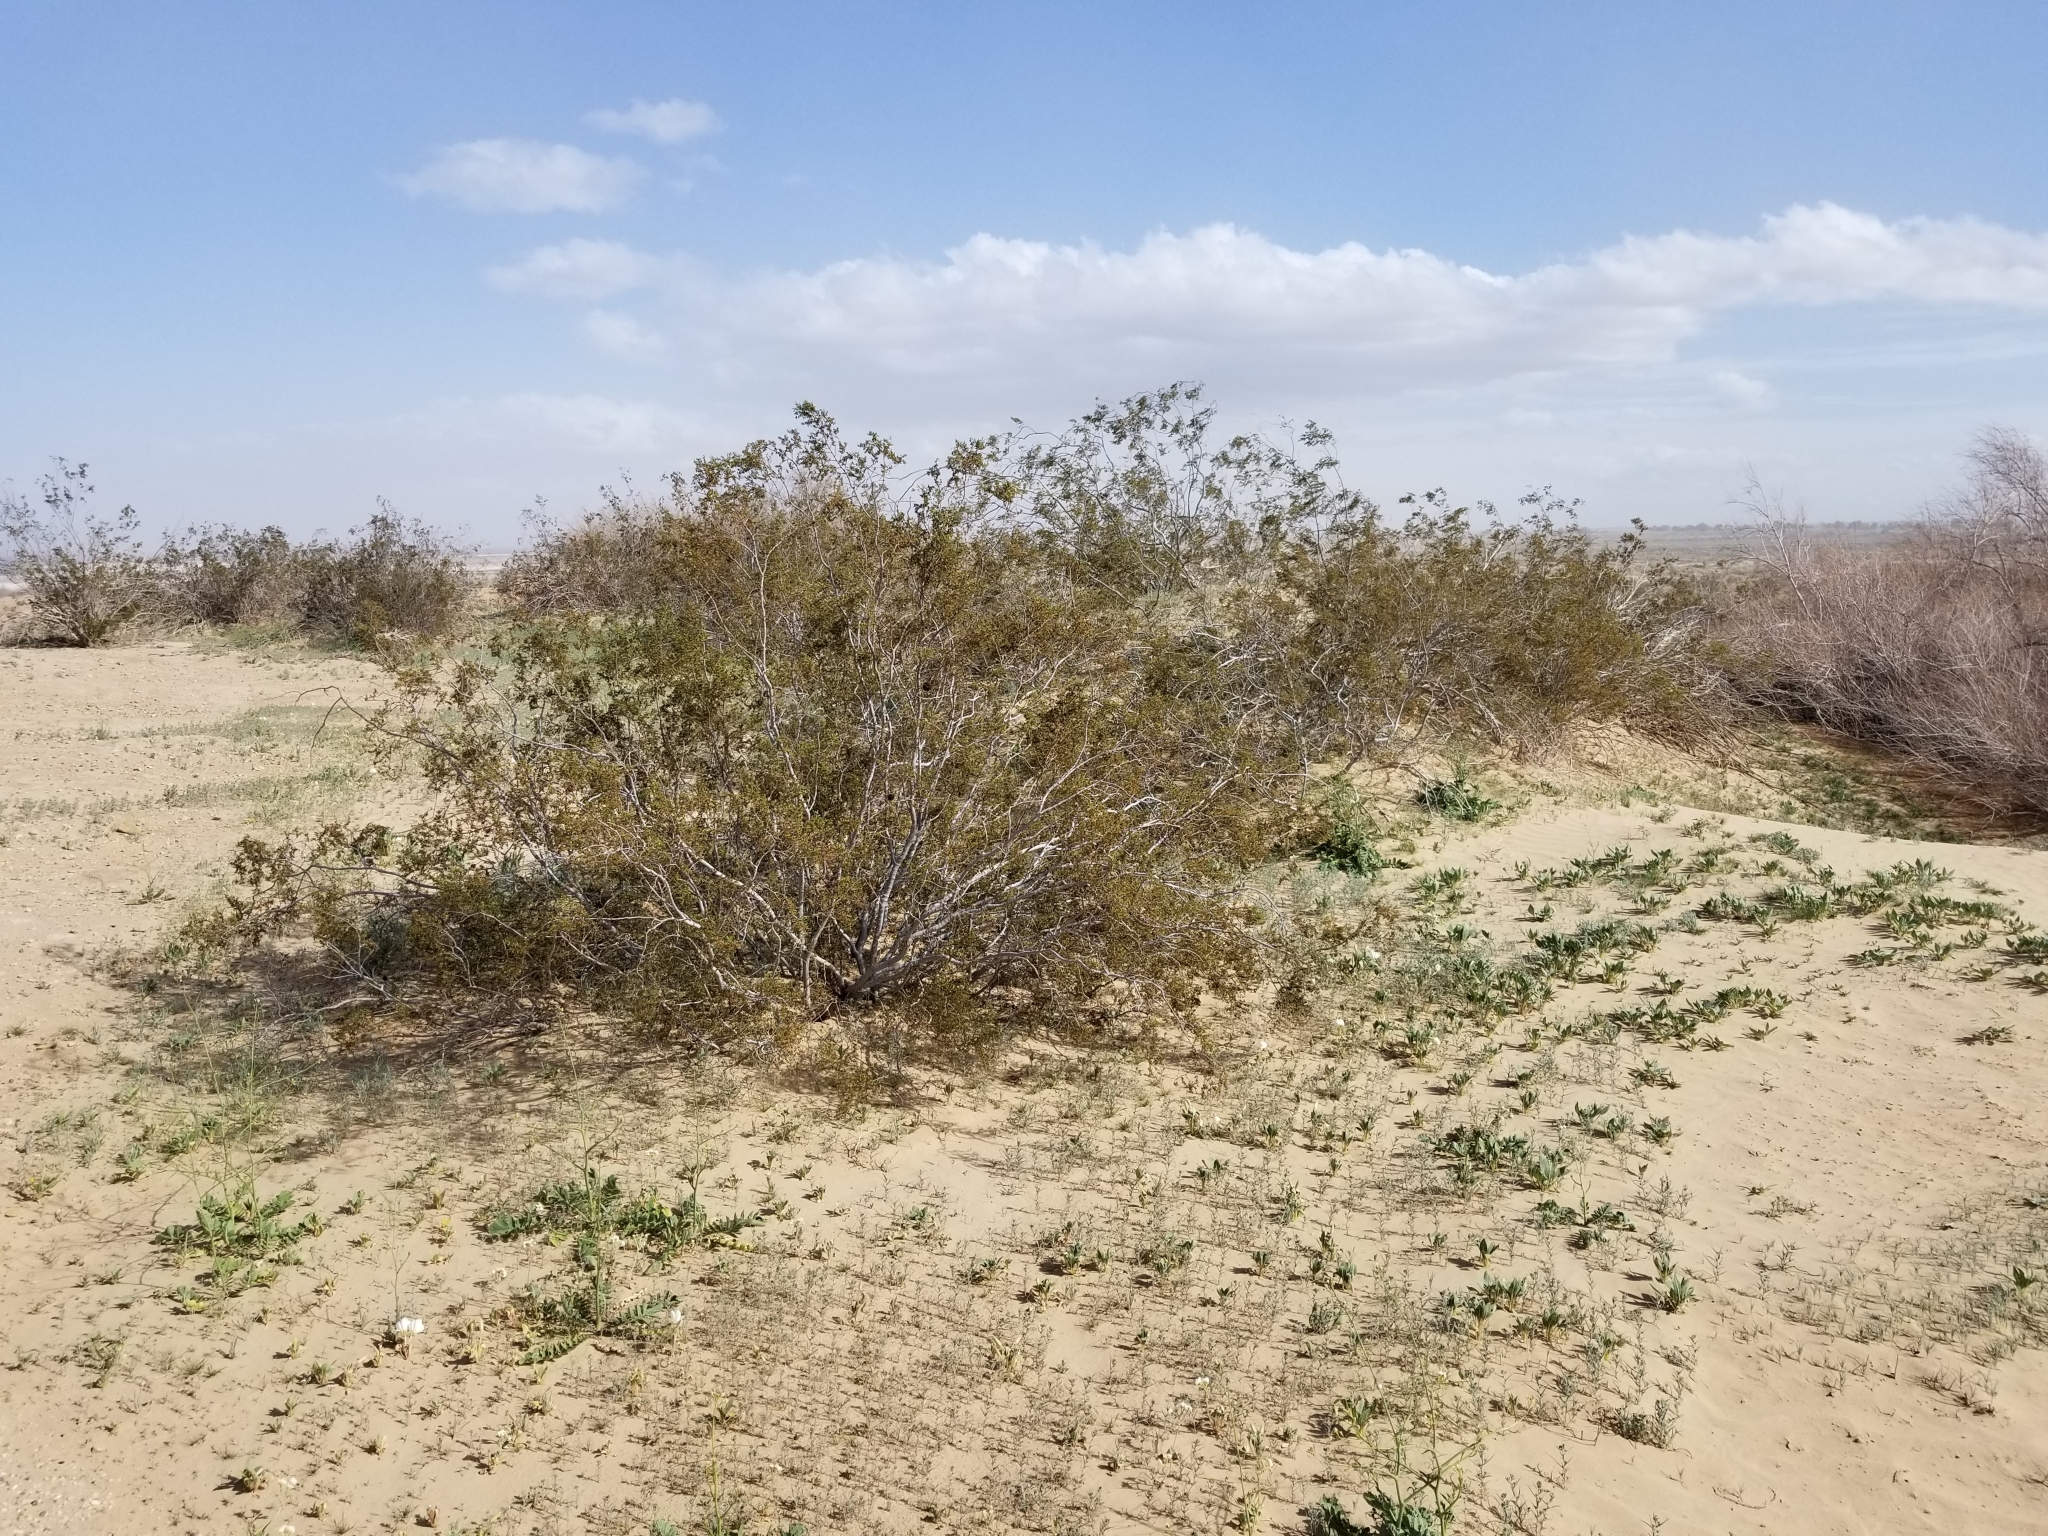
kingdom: Plantae
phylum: Tracheophyta
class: Magnoliopsida
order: Zygophyllales
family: Zygophyllaceae
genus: Larrea
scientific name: Larrea tridentata
